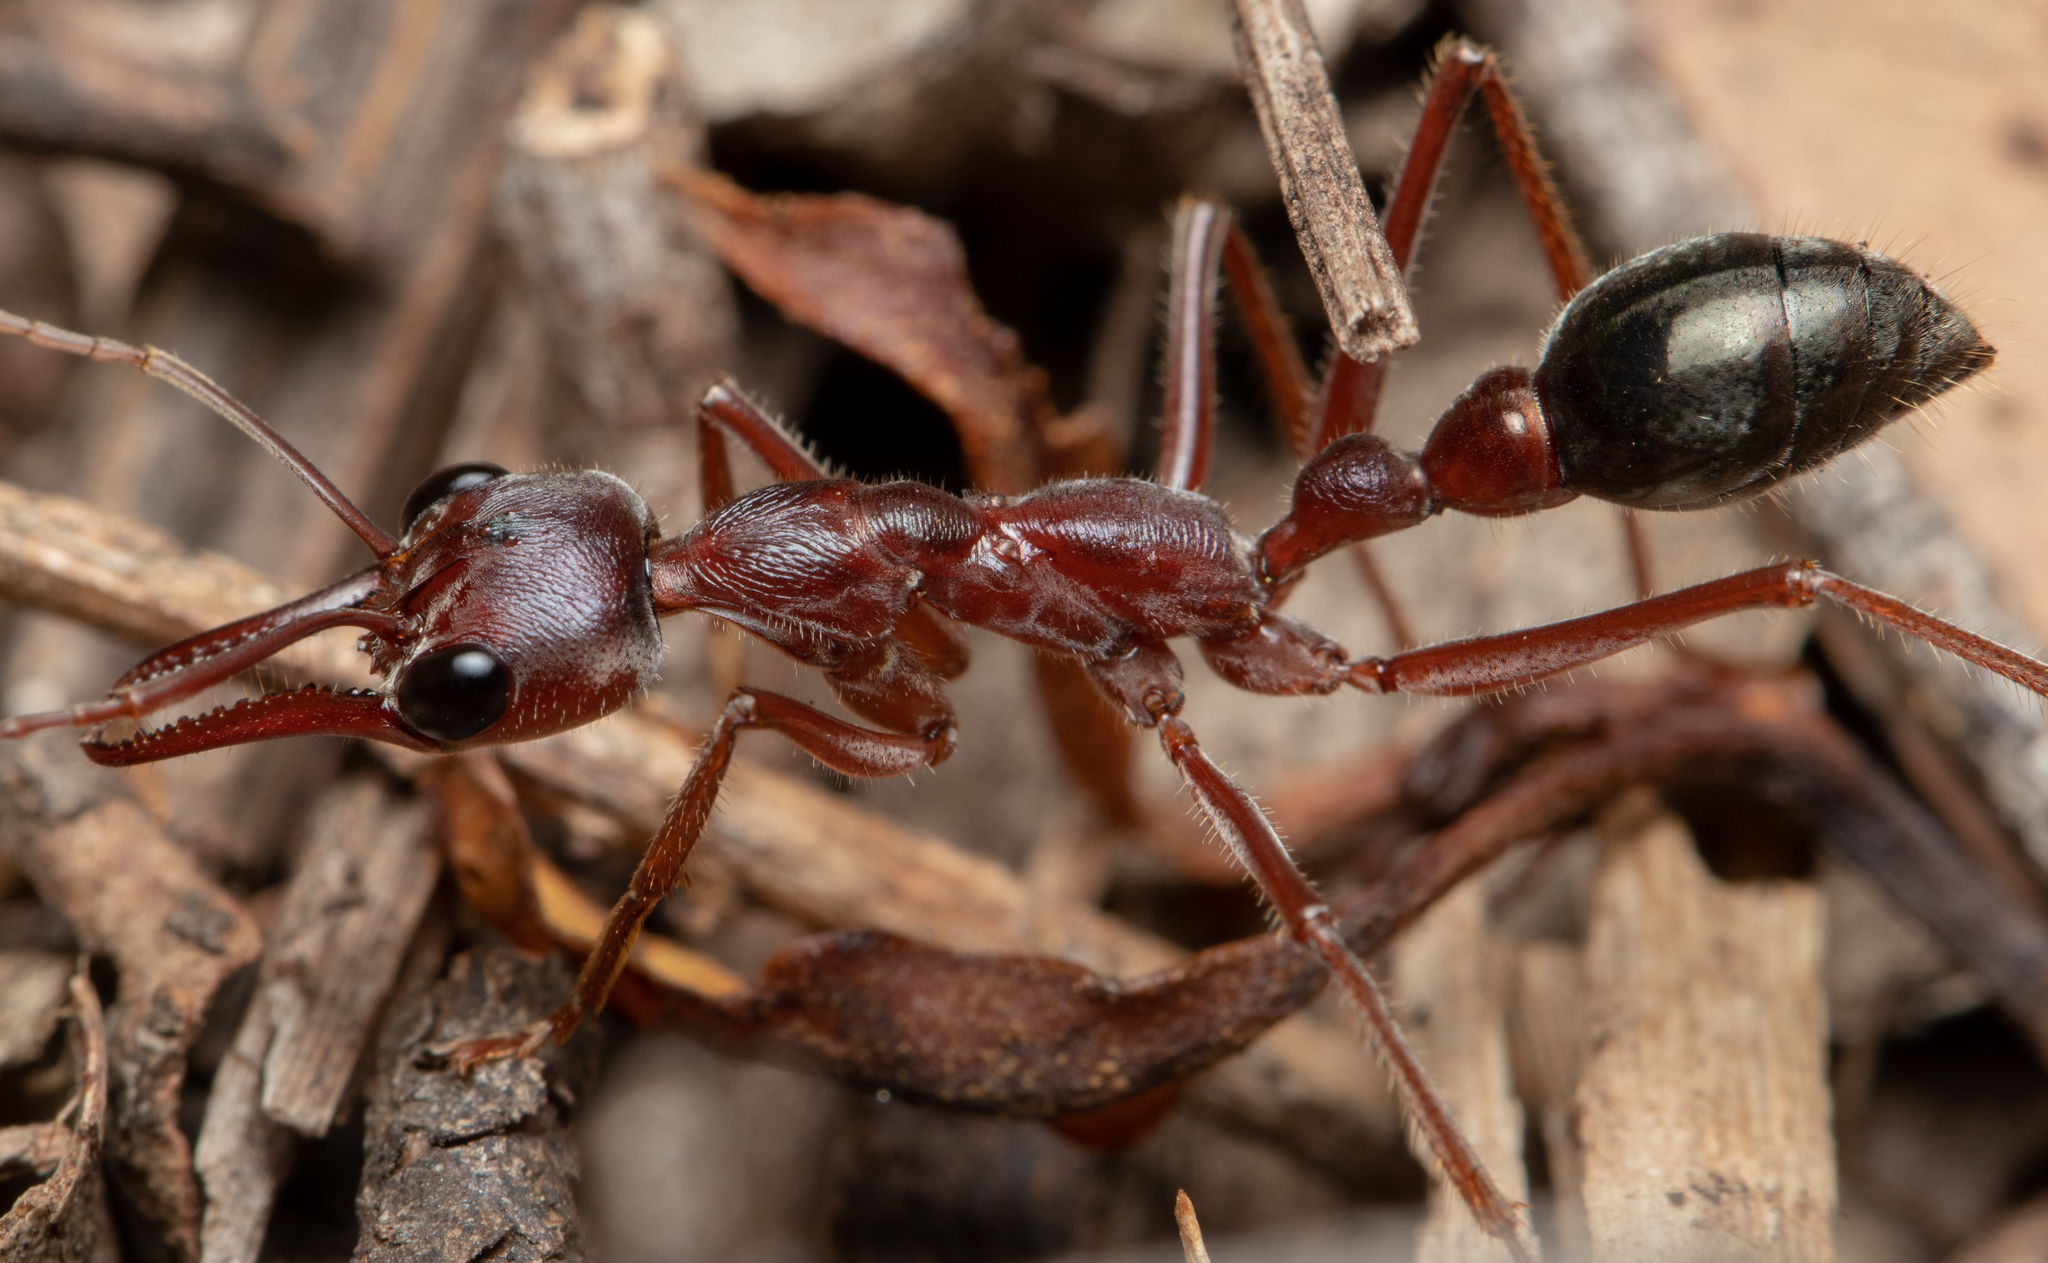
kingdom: Animalia
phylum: Arthropoda
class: Insecta
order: Hymenoptera
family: Formicidae
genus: Myrmecia
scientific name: Myrmecia brevinoda
